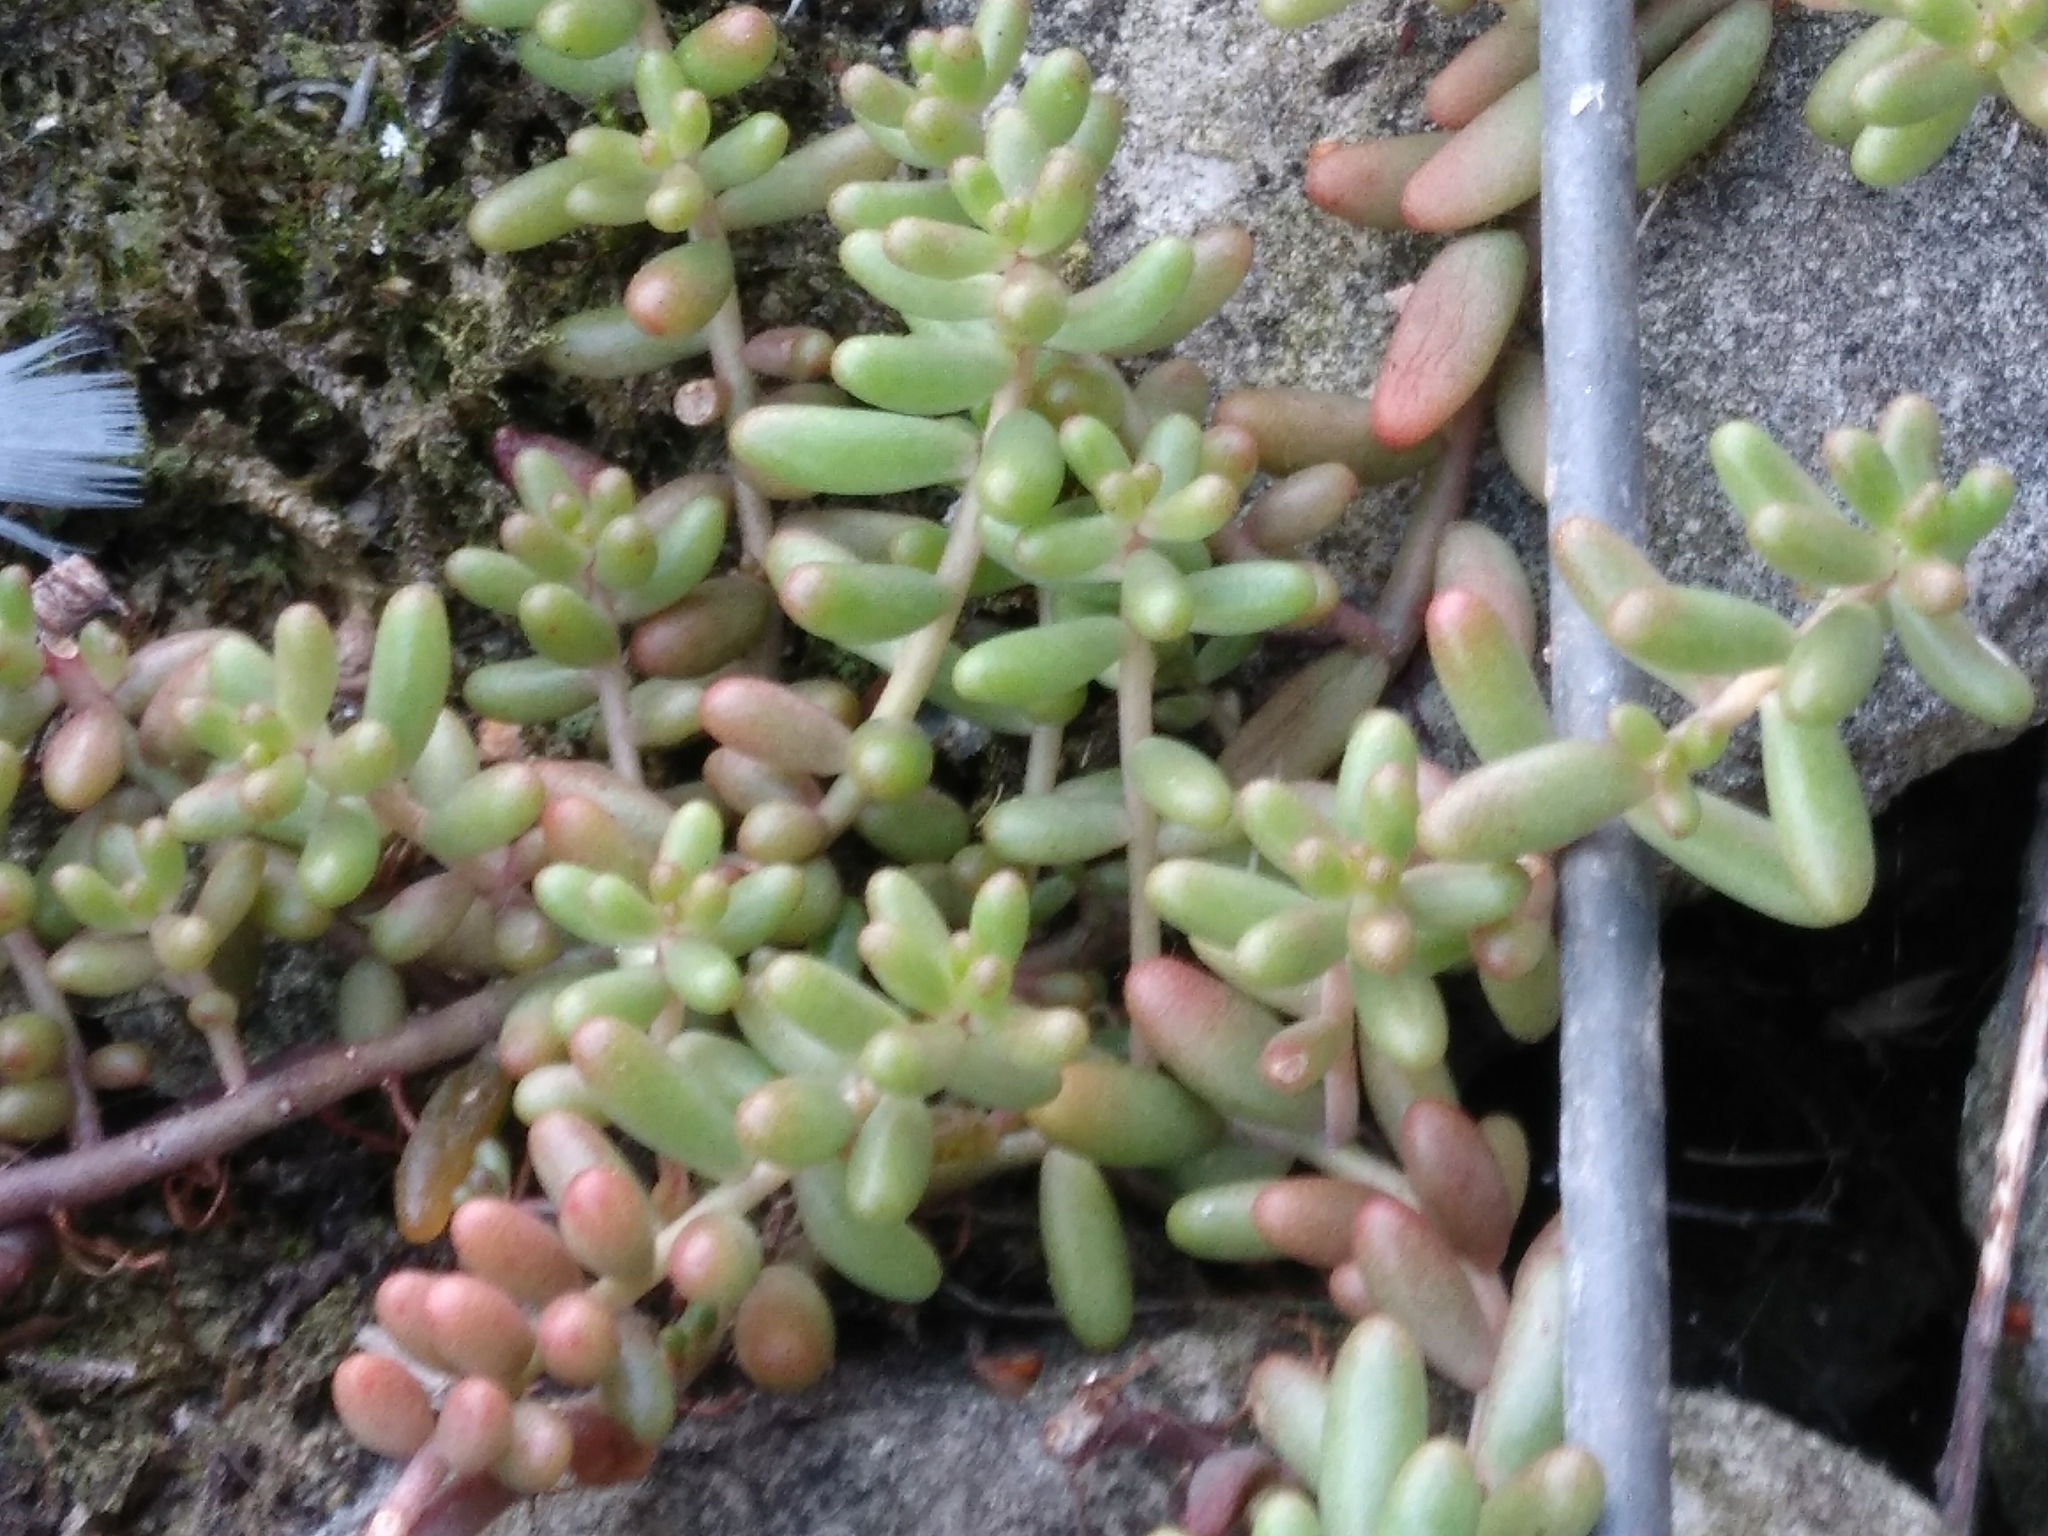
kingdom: Plantae
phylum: Tracheophyta
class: Magnoliopsida
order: Saxifragales
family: Crassulaceae
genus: Sedum
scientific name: Sedum album
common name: White stonecrop
